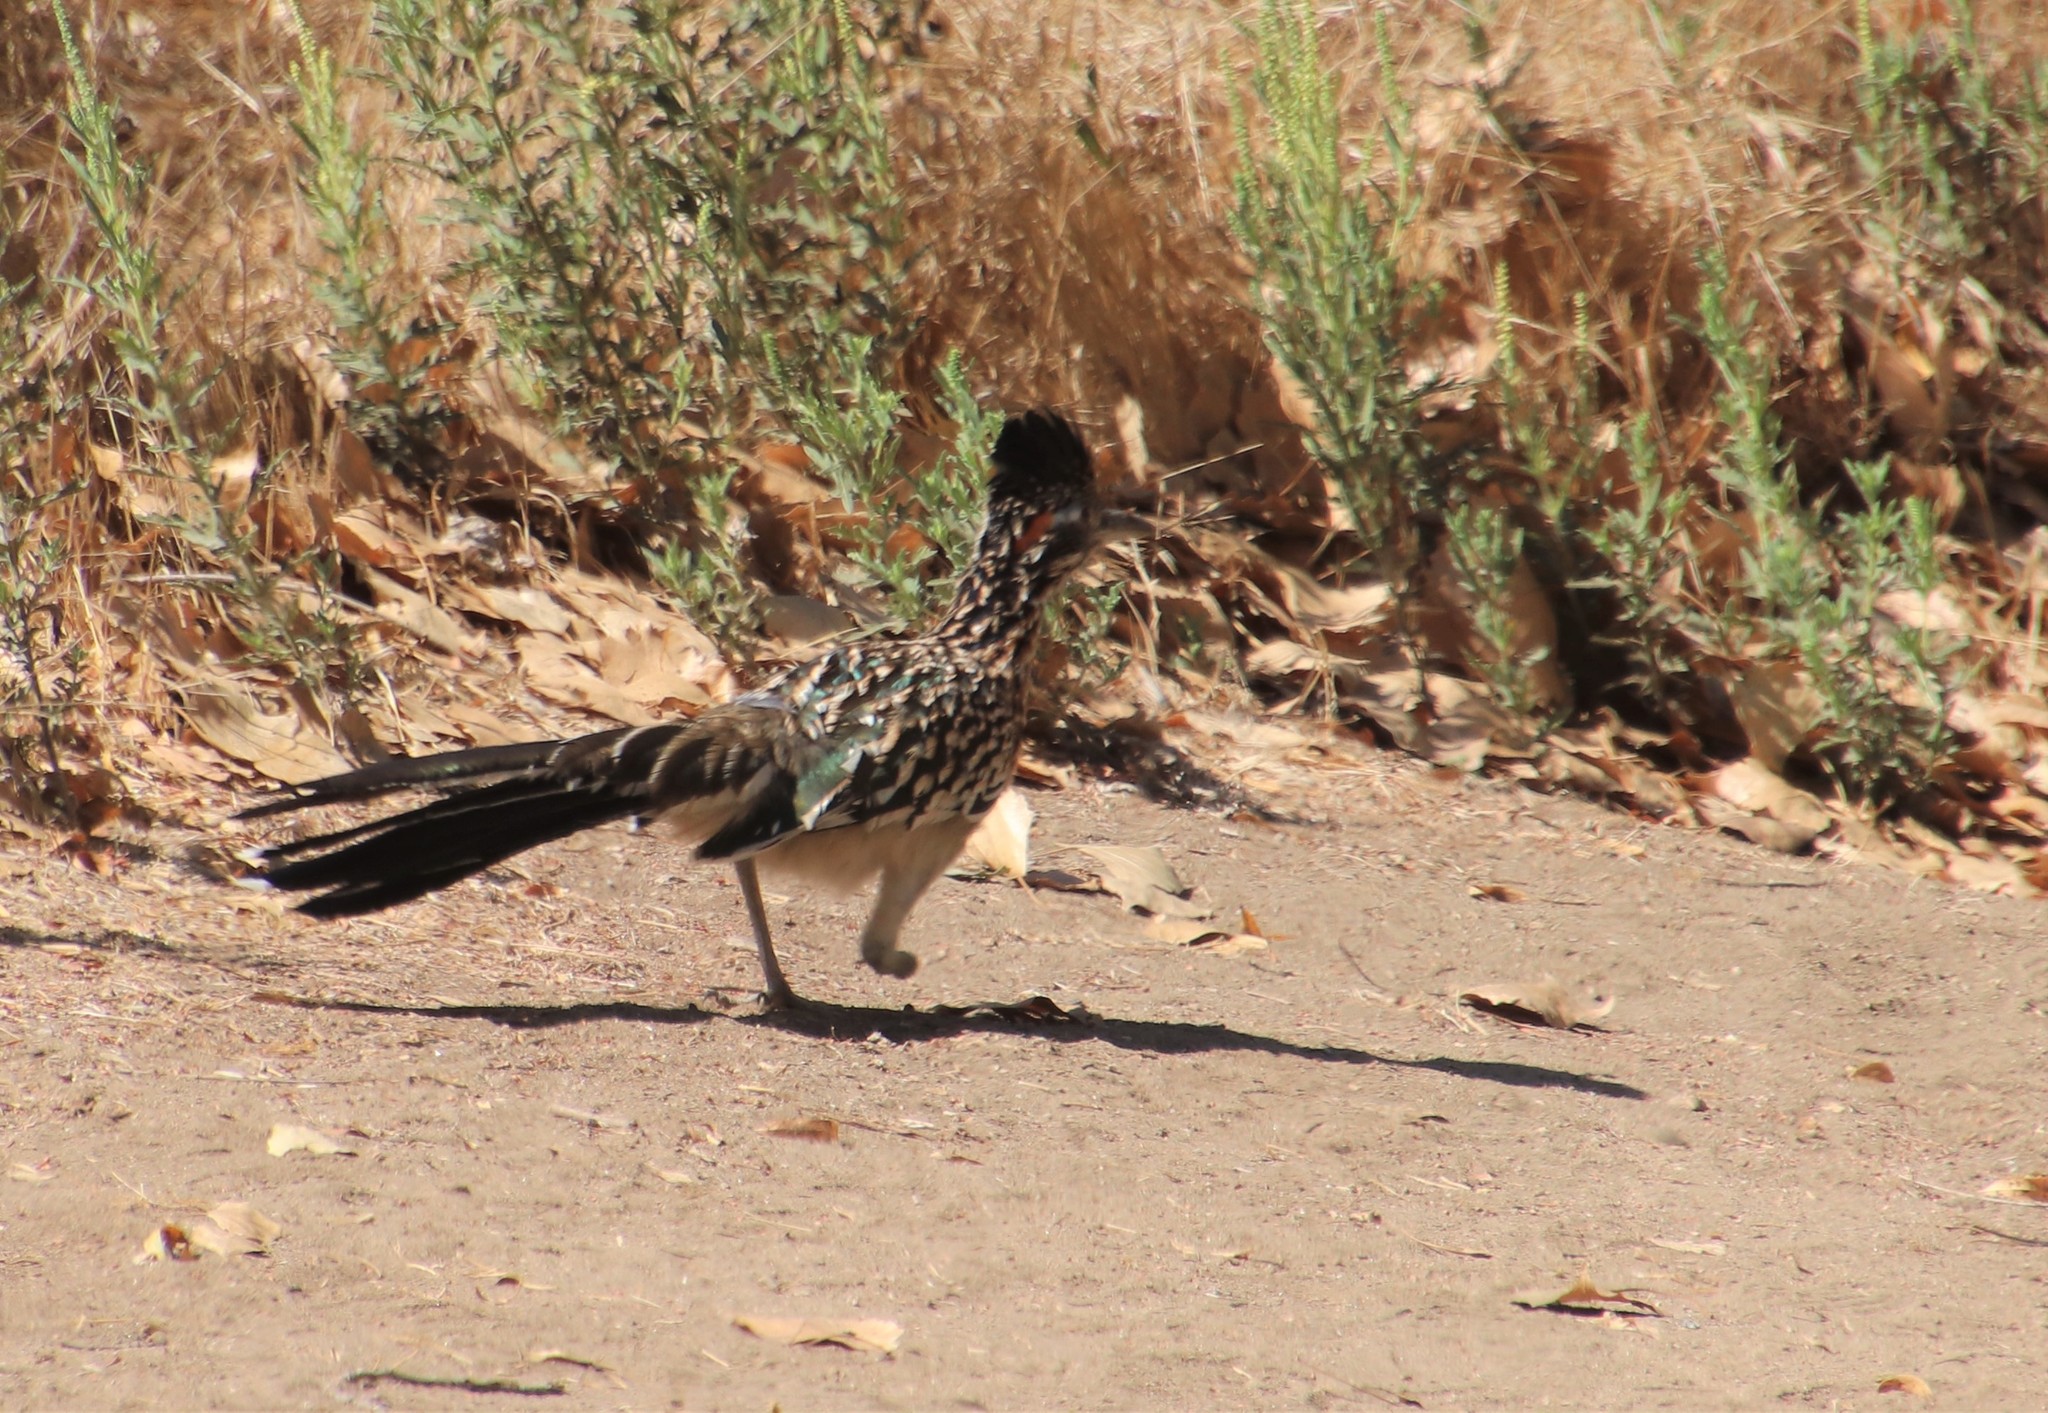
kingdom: Animalia
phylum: Chordata
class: Aves
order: Cuculiformes
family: Cuculidae
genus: Geococcyx
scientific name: Geococcyx californianus
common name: Greater roadrunner
